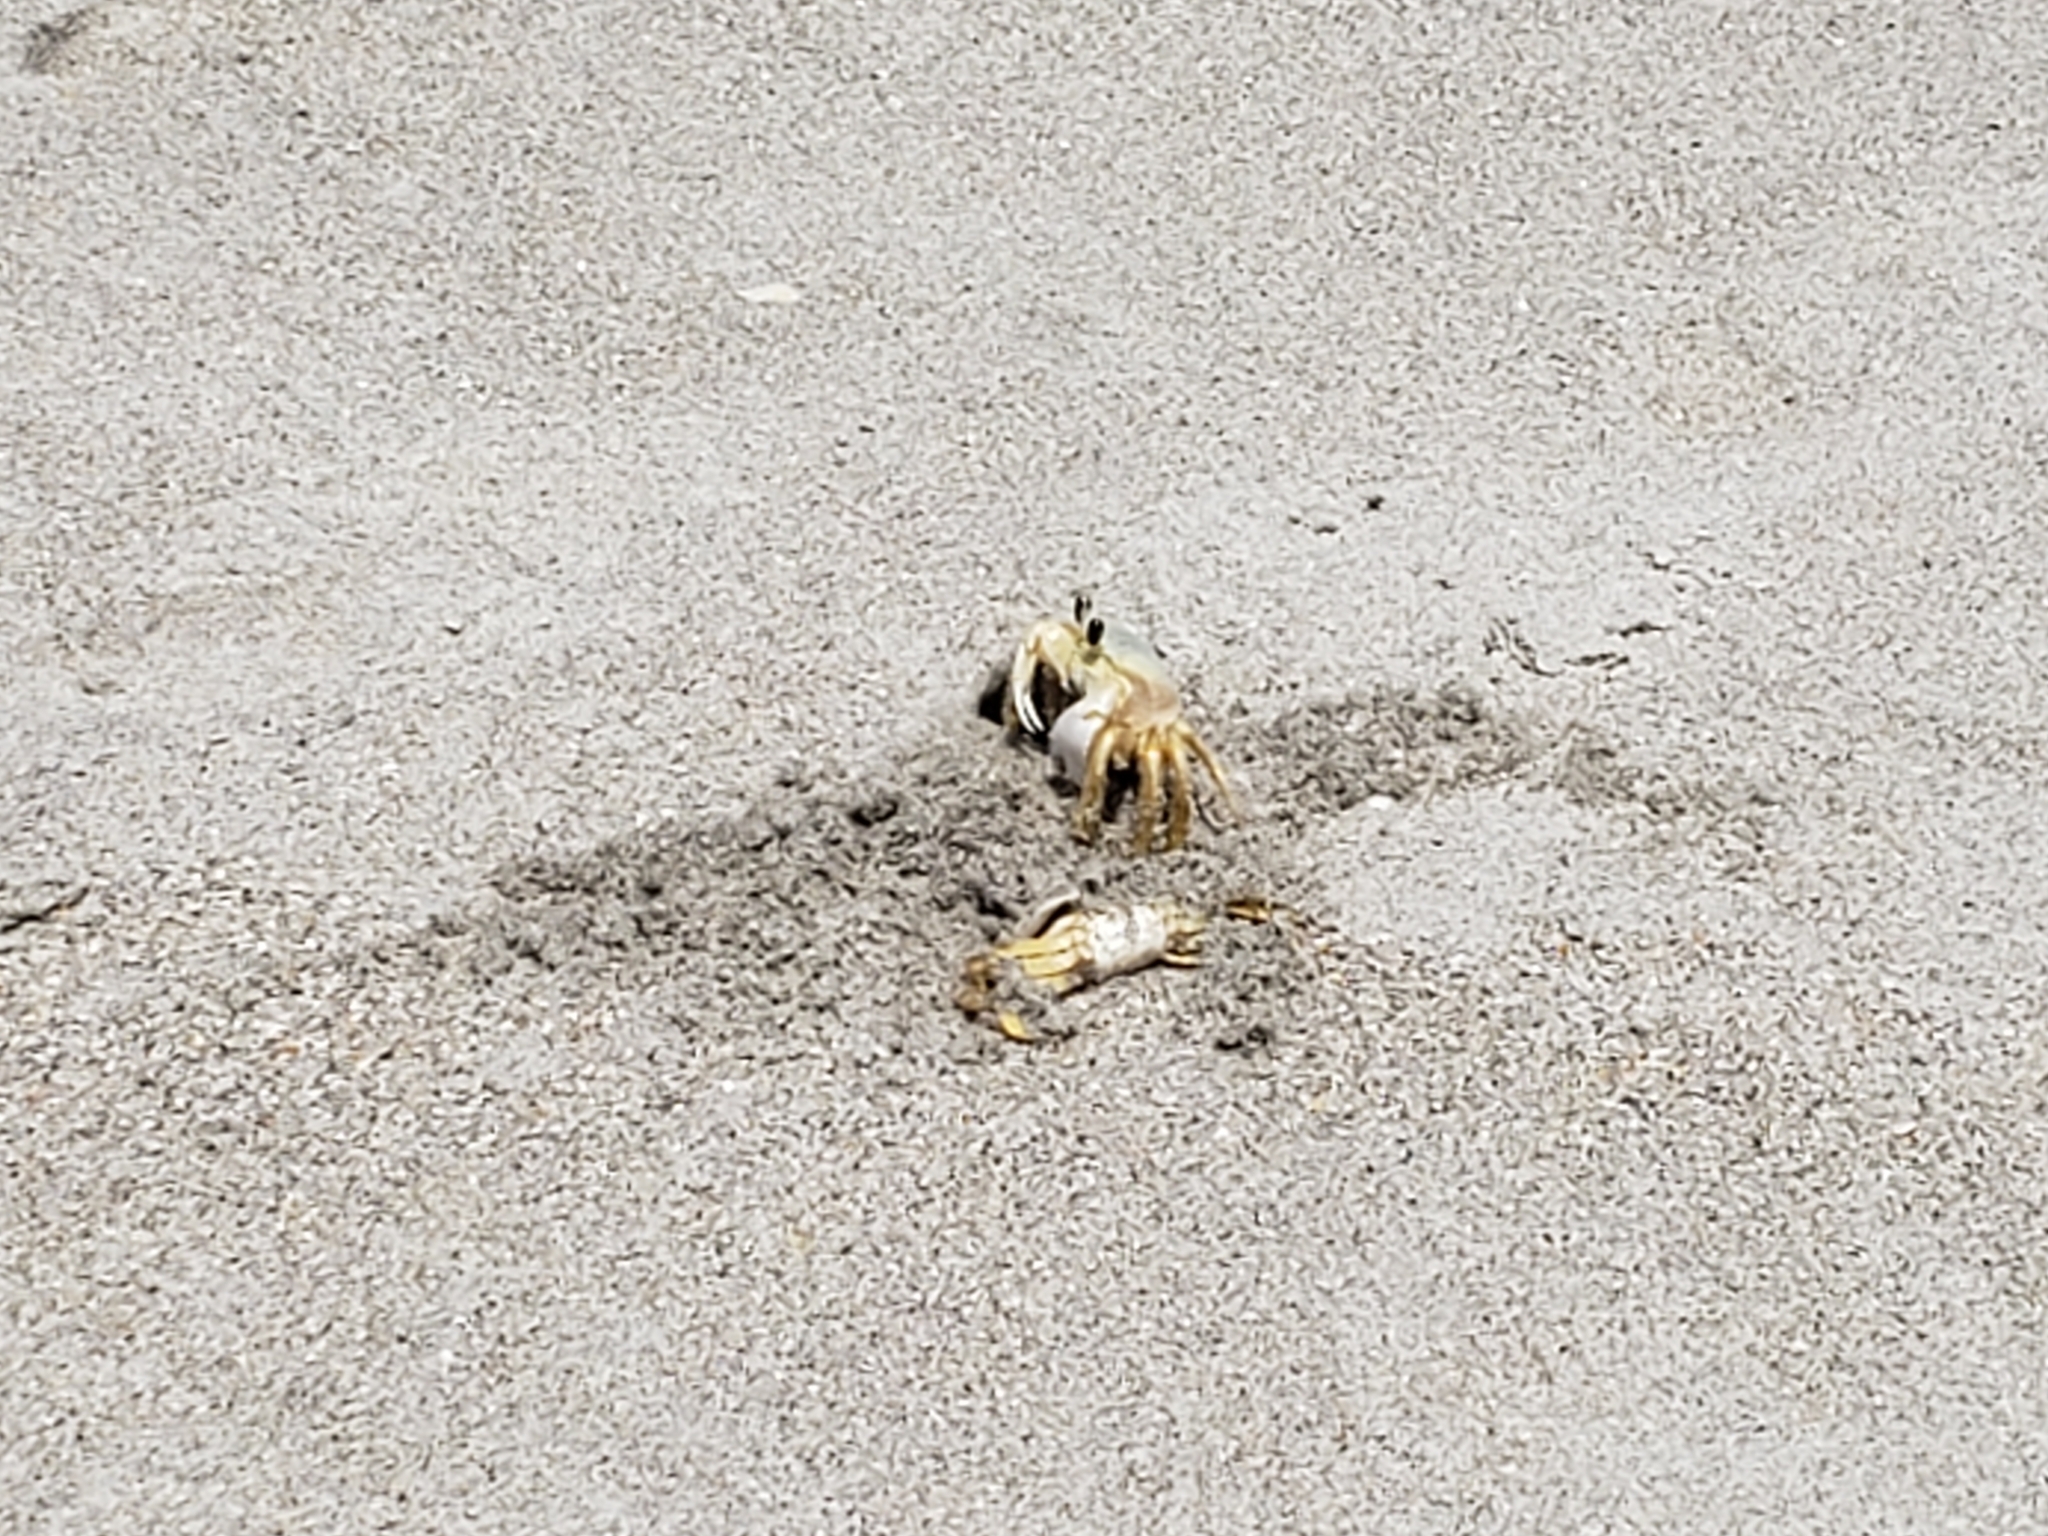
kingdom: Animalia
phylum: Arthropoda
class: Malacostraca
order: Decapoda
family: Ocypodidae
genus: Ocypode
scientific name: Ocypode quadrata
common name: Ghost crab
